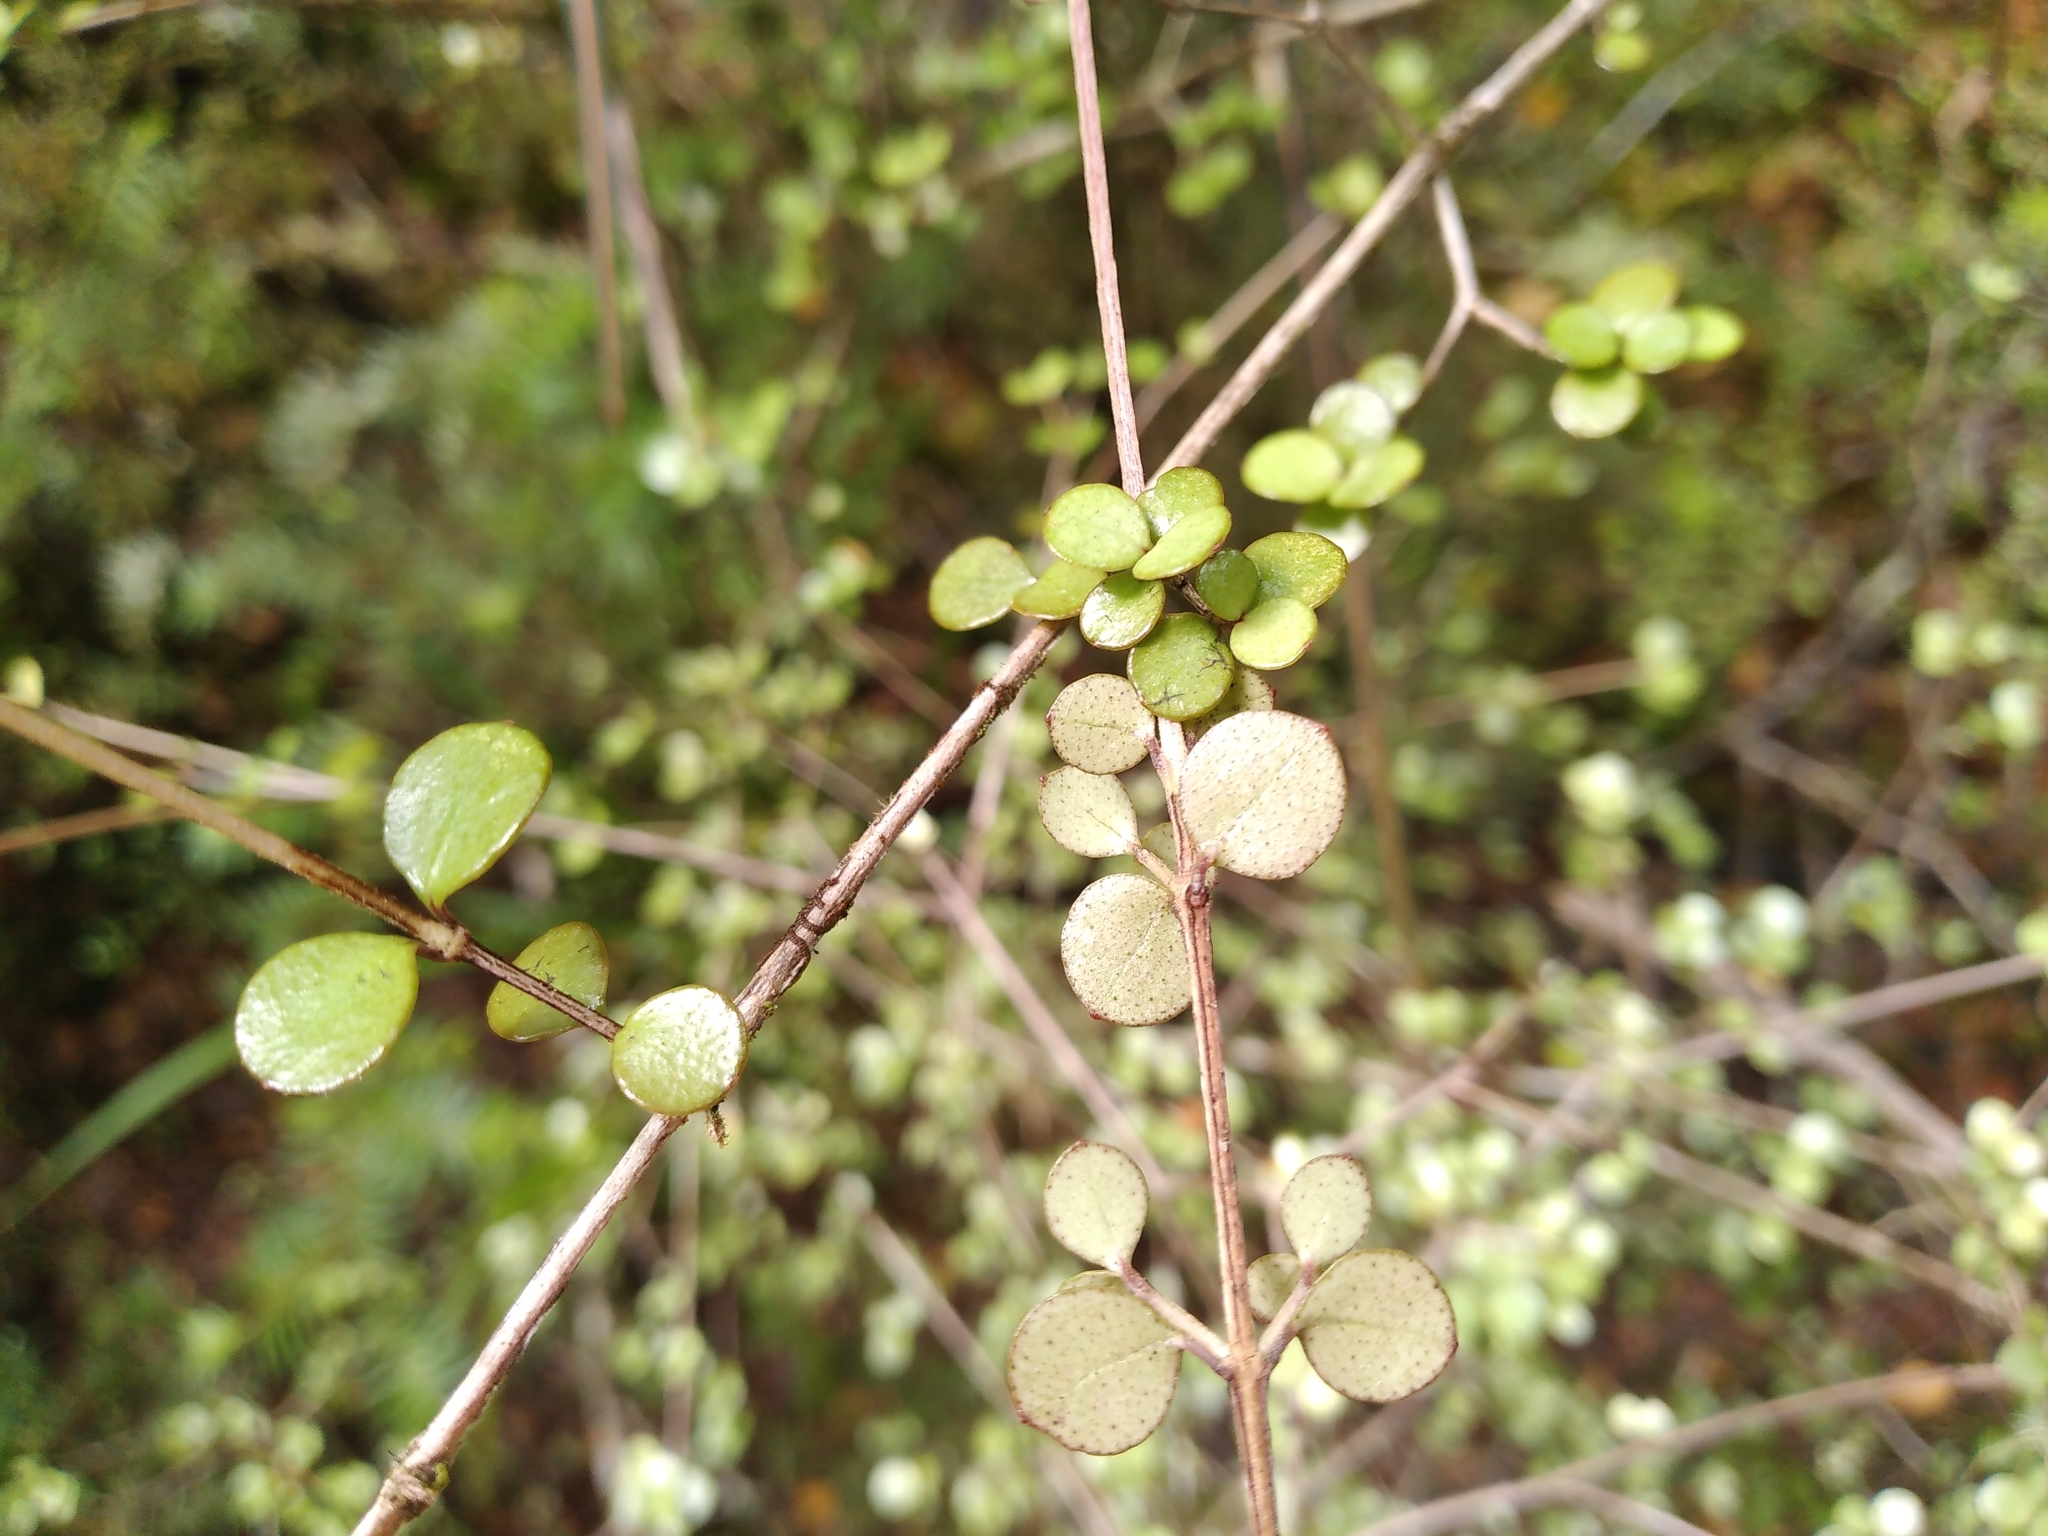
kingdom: Plantae
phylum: Tracheophyta
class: Magnoliopsida
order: Myrtales
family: Myrtaceae
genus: Neomyrtus
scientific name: Neomyrtus pedunculata
